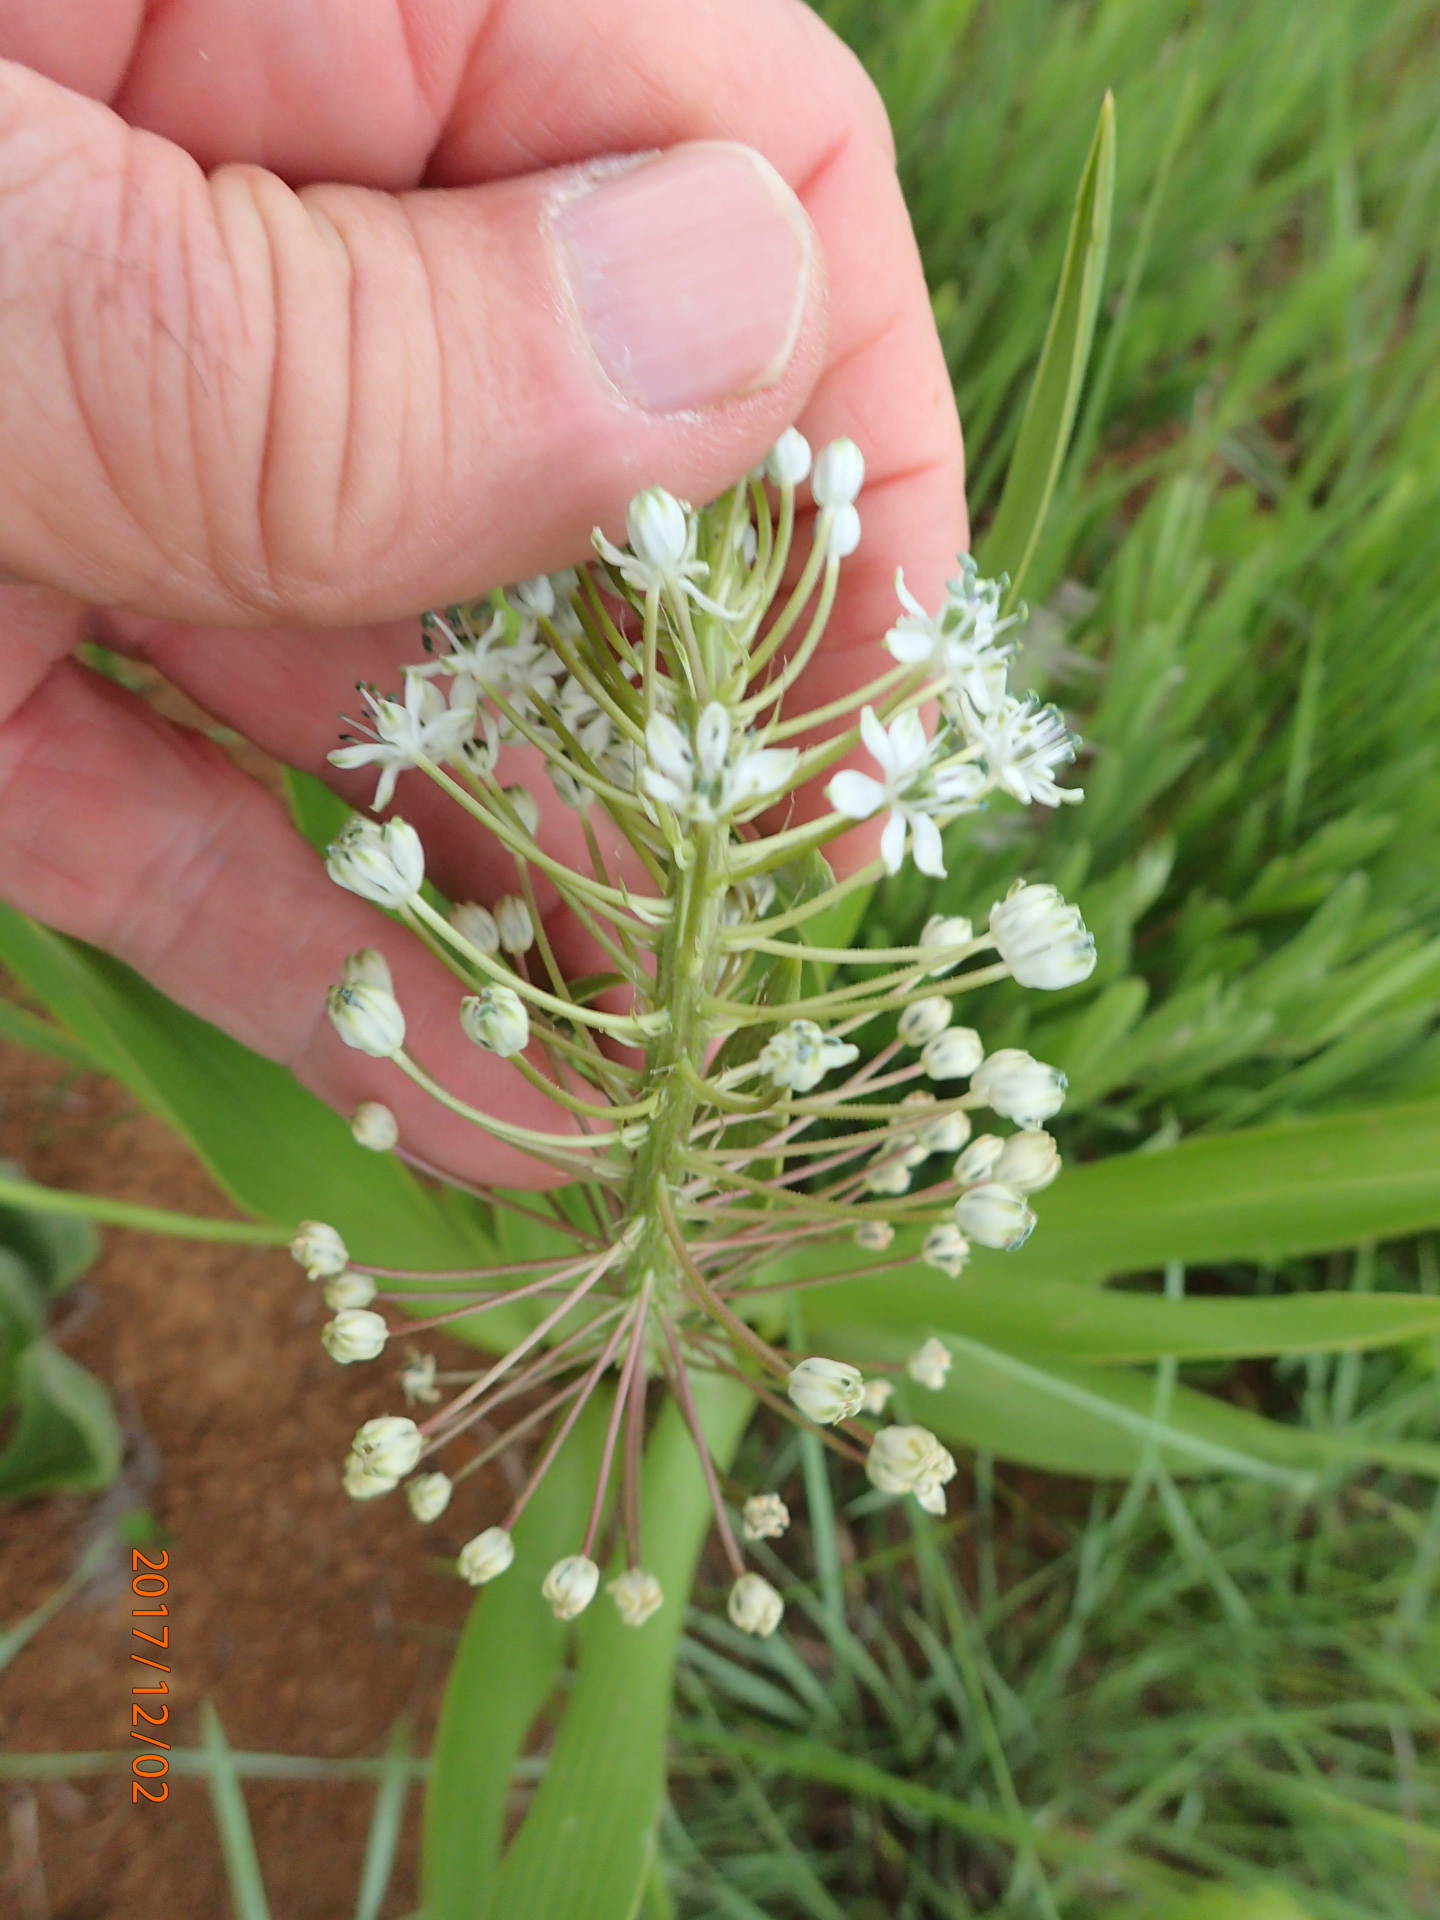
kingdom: Plantae
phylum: Tracheophyta
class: Liliopsida
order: Asparagales
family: Asparagaceae
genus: Schizocarphus
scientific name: Schizocarphus nervosus
